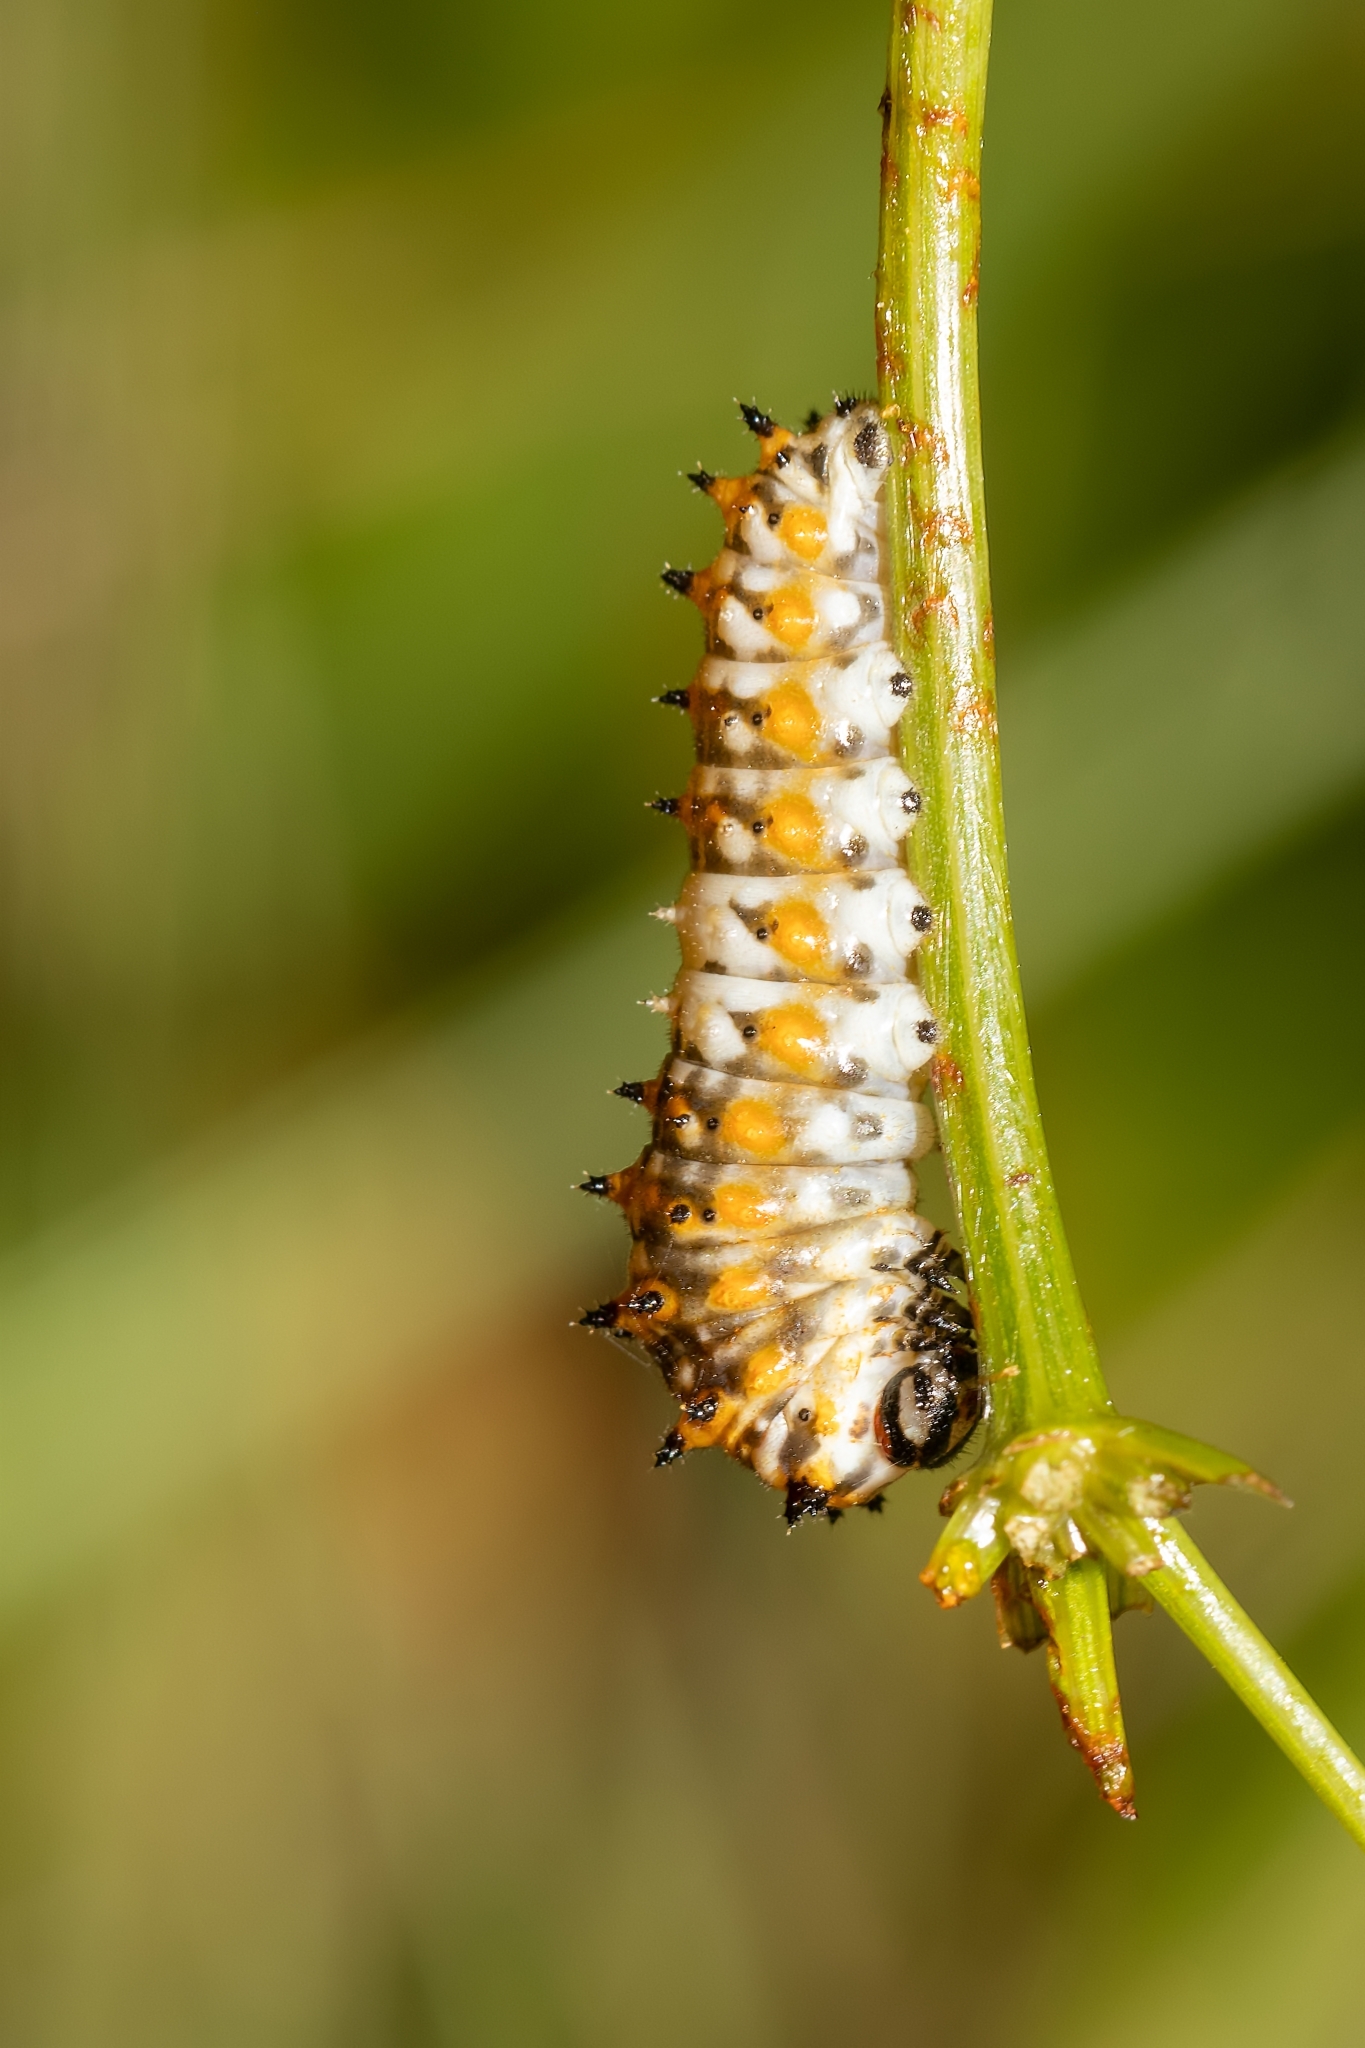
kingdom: Animalia
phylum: Arthropoda
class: Insecta
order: Lepidoptera
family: Papilionidae
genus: Papilio
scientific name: Papilio polyxenes
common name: Black swallowtail
